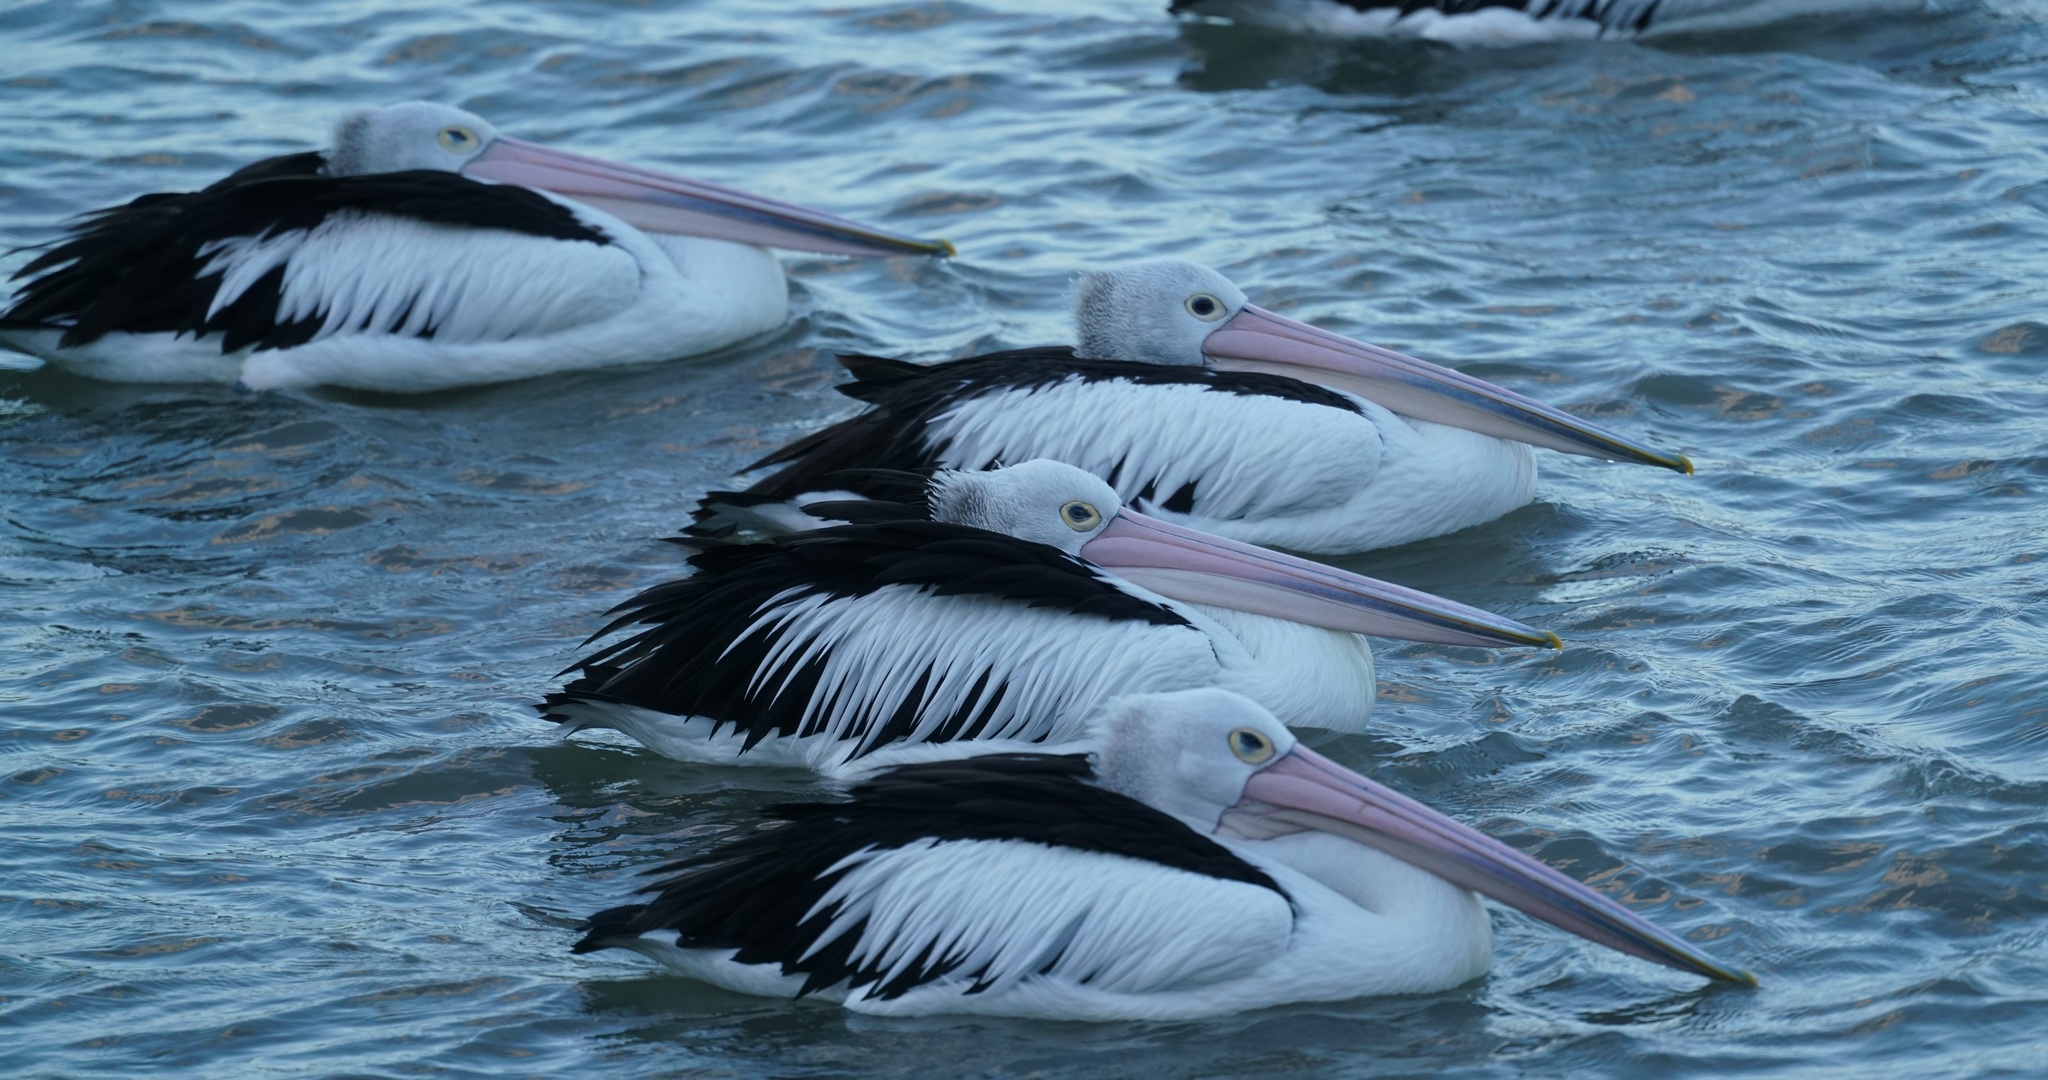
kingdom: Animalia
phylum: Chordata
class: Aves
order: Pelecaniformes
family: Pelecanidae
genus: Pelecanus
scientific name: Pelecanus conspicillatus
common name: Australian pelican
